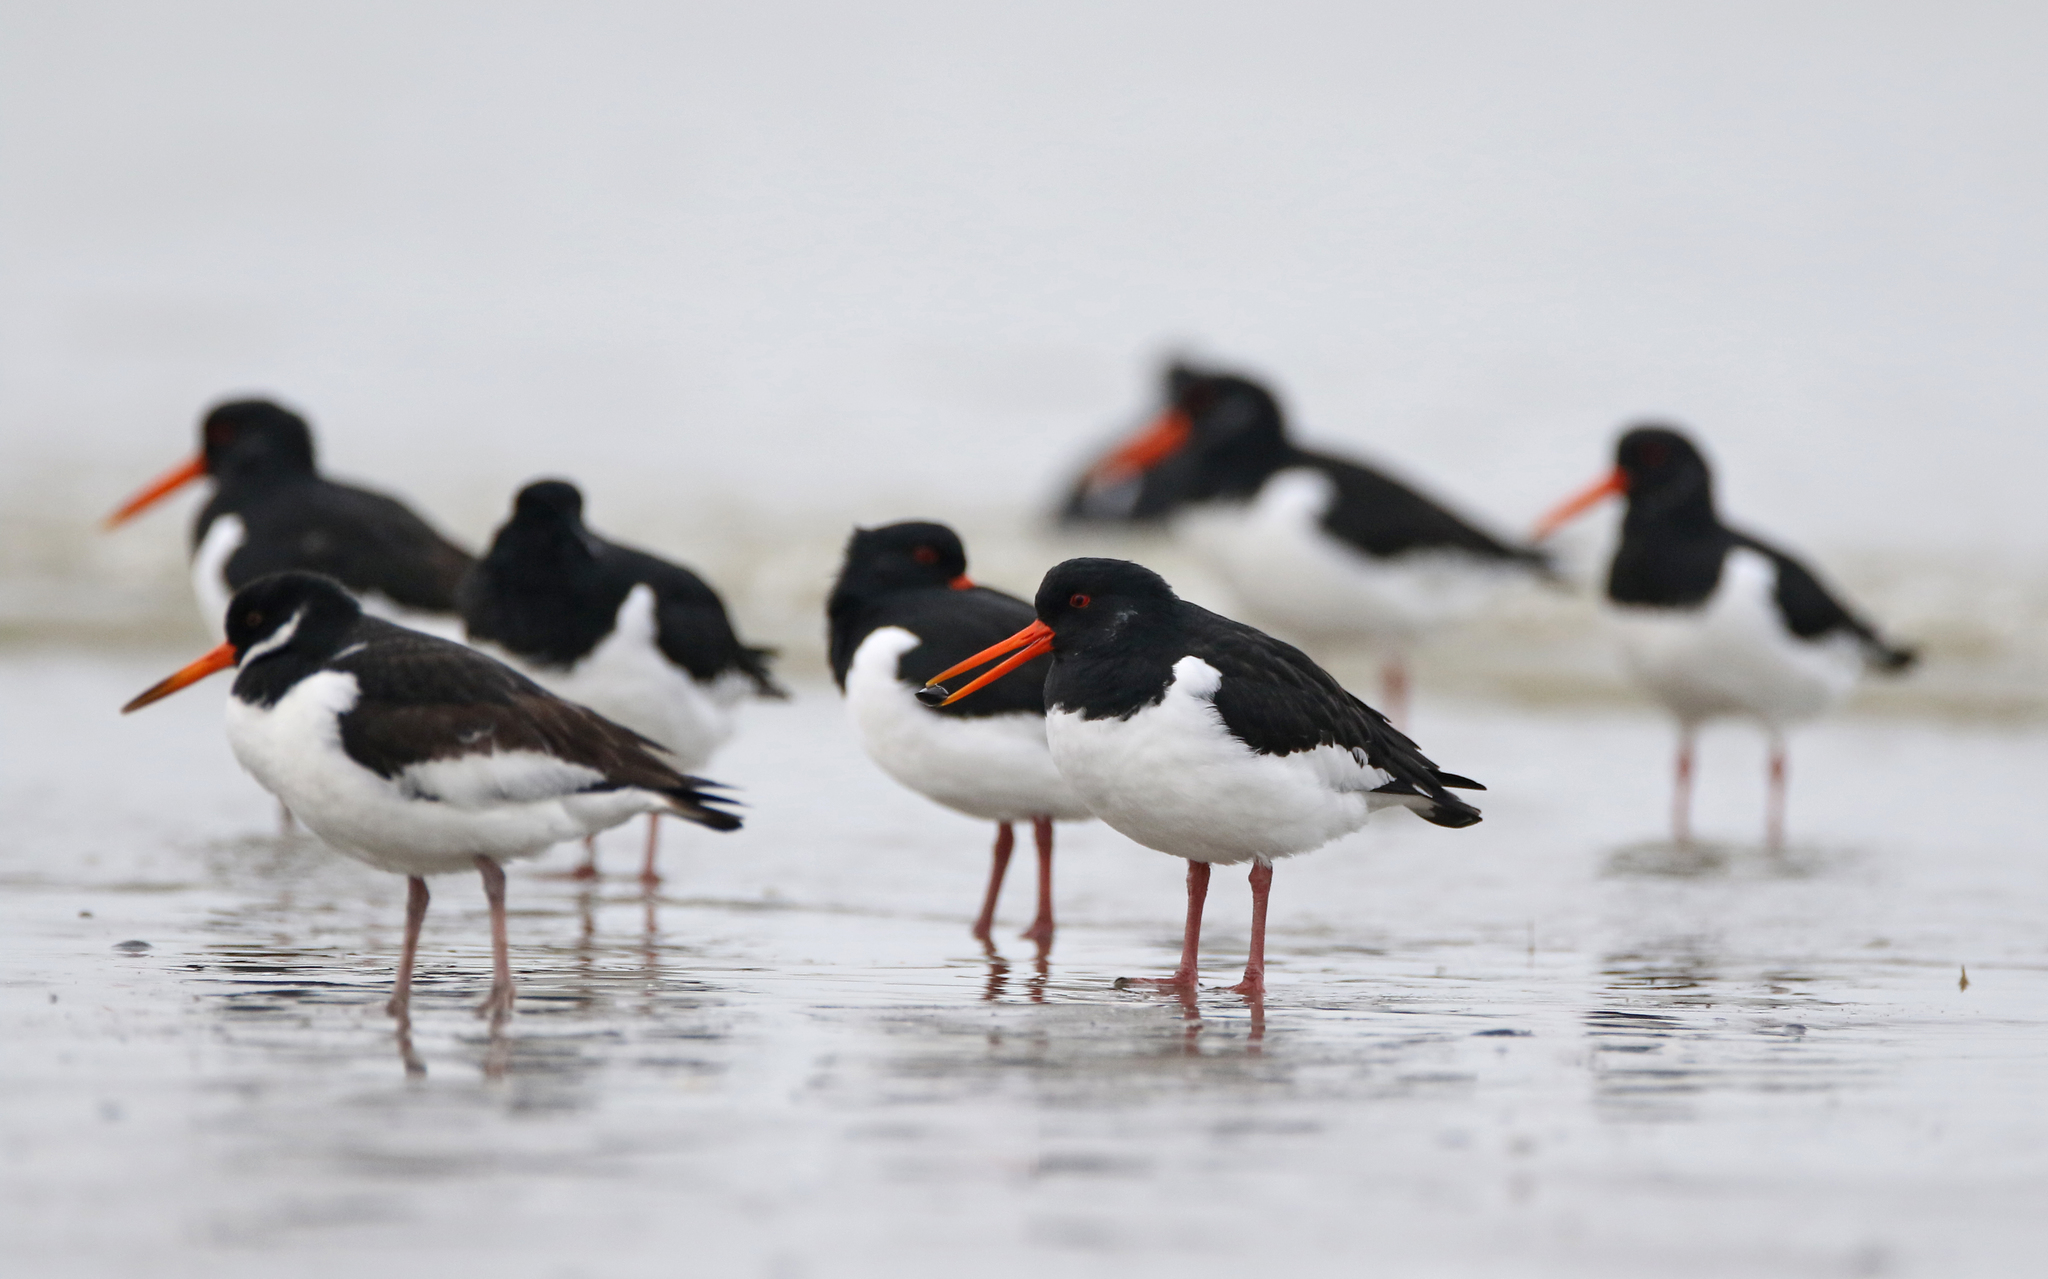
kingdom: Animalia
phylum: Chordata
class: Aves
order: Charadriiformes
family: Haematopodidae
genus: Haematopus
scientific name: Haematopus ostralegus
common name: Eurasian oystercatcher
